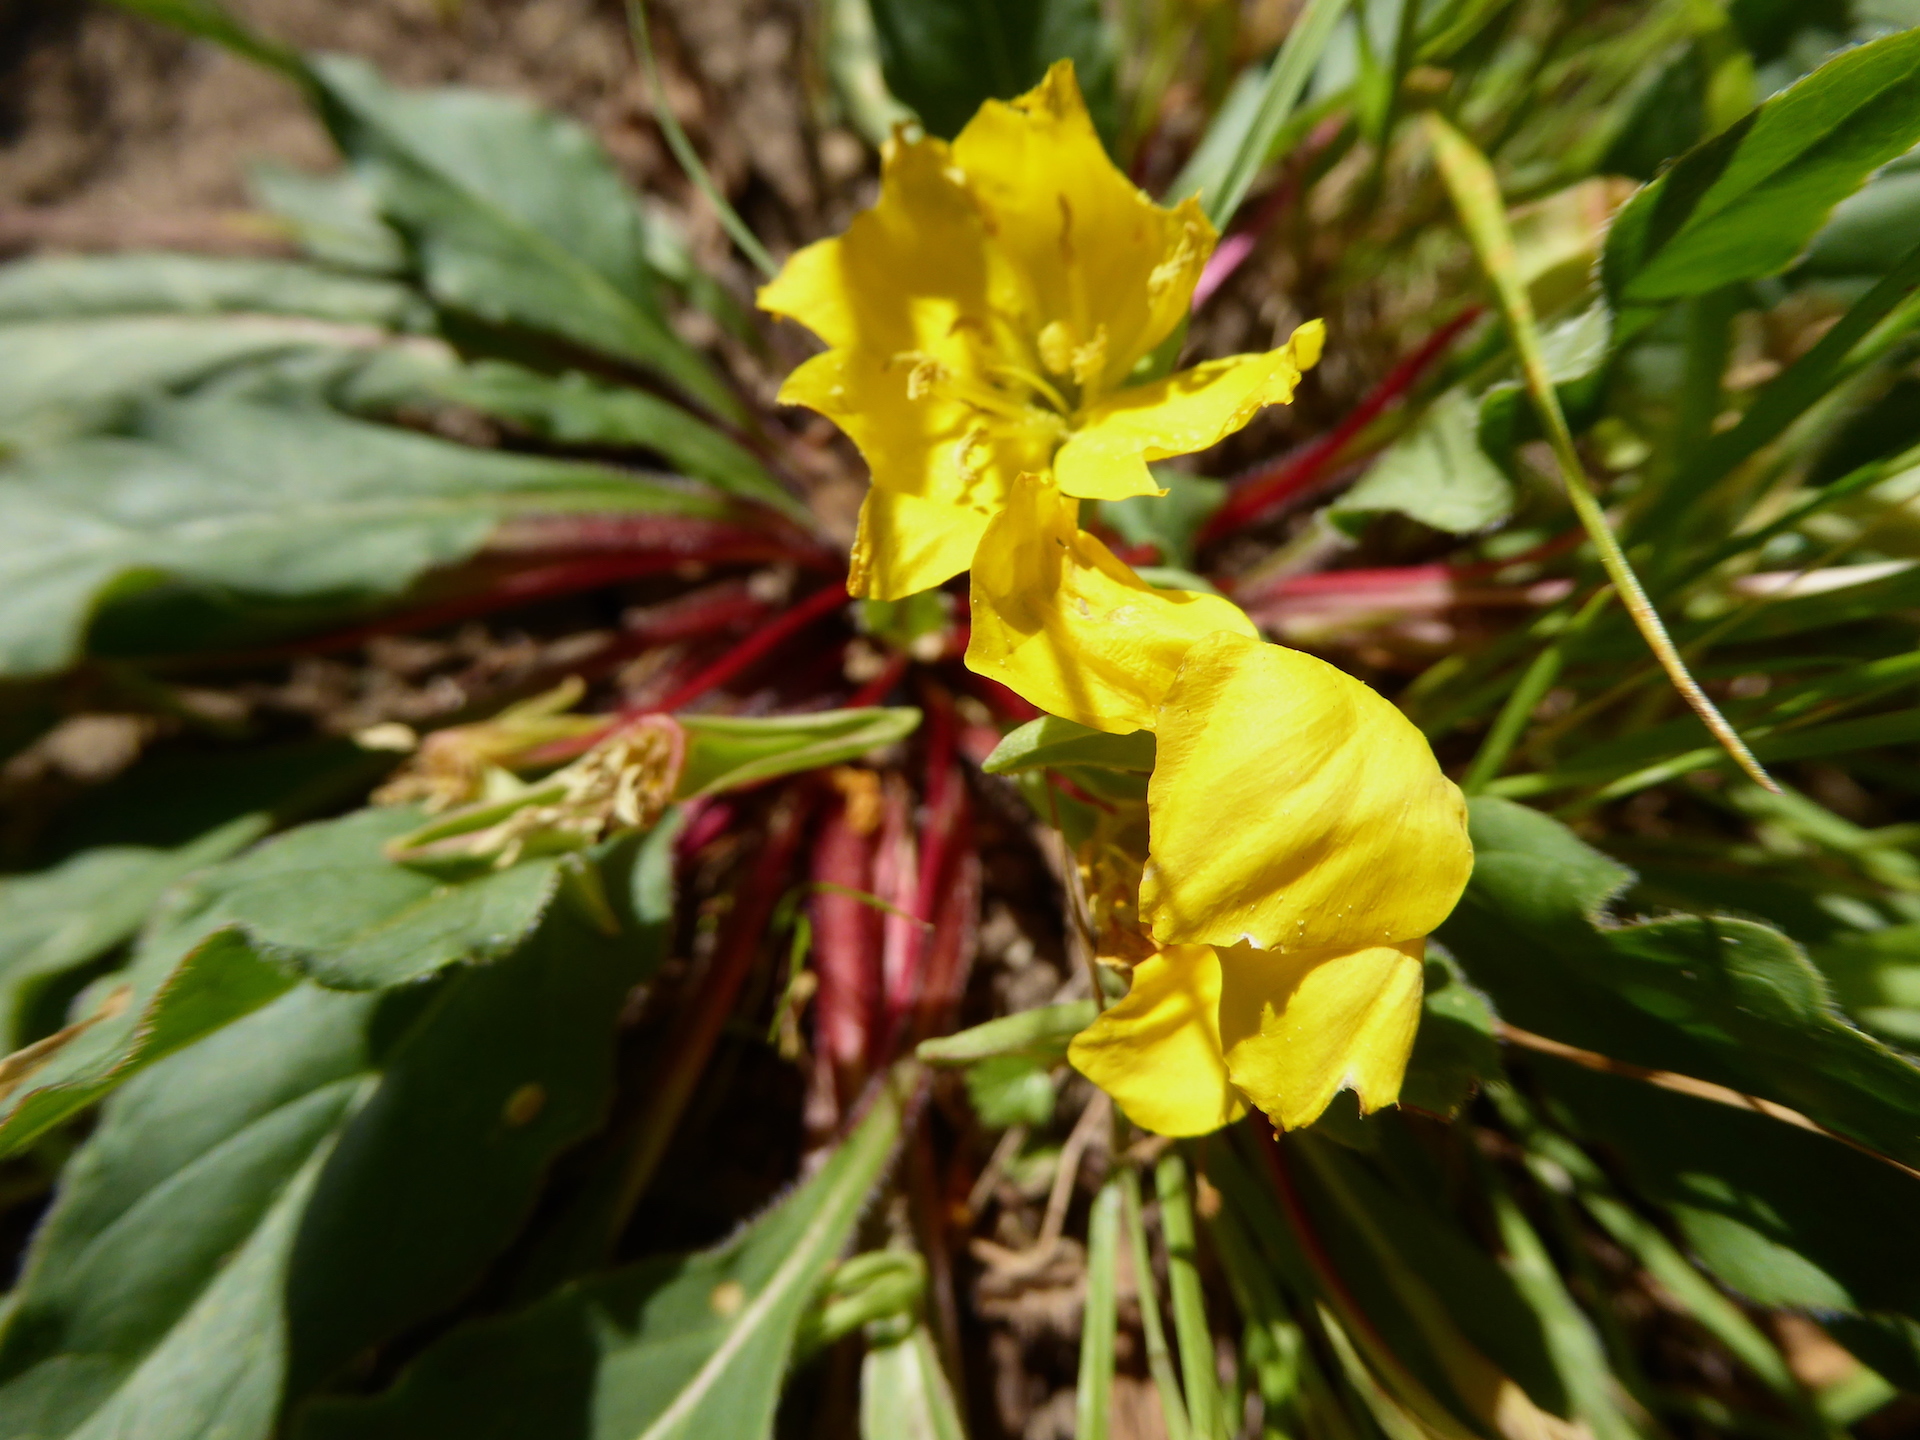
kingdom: Plantae
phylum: Tracheophyta
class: Magnoliopsida
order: Myrtales
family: Onagraceae
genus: Taraxia
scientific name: Taraxia ovata
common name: Goldeneggs
